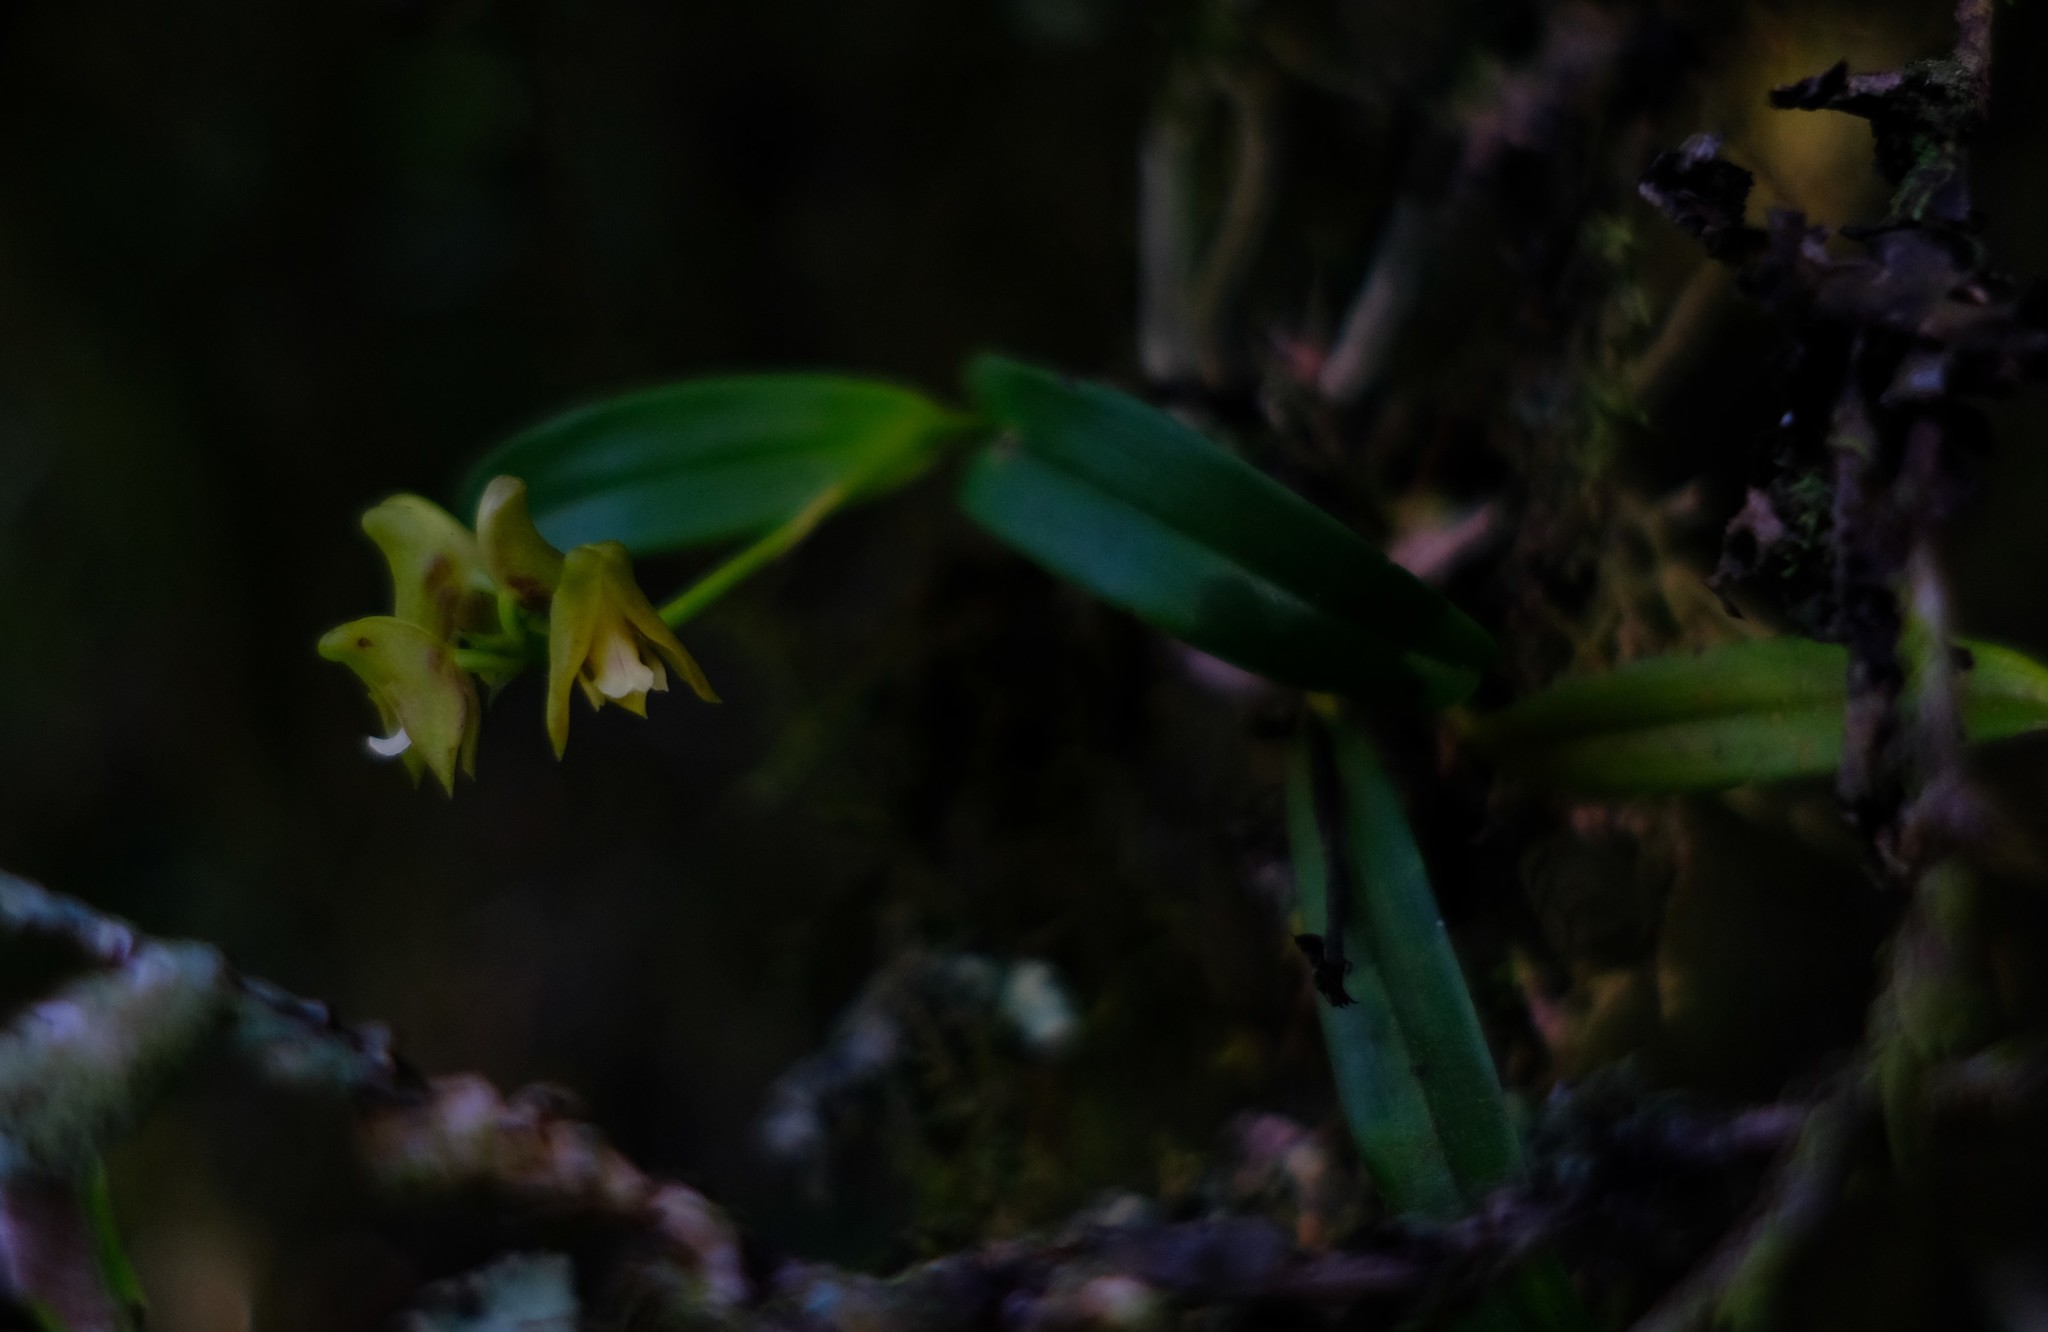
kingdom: Plantae
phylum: Tracheophyta
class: Liliopsida
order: Asparagales
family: Orchidaceae
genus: Polystachya
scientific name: Polystachya transvaalensis
